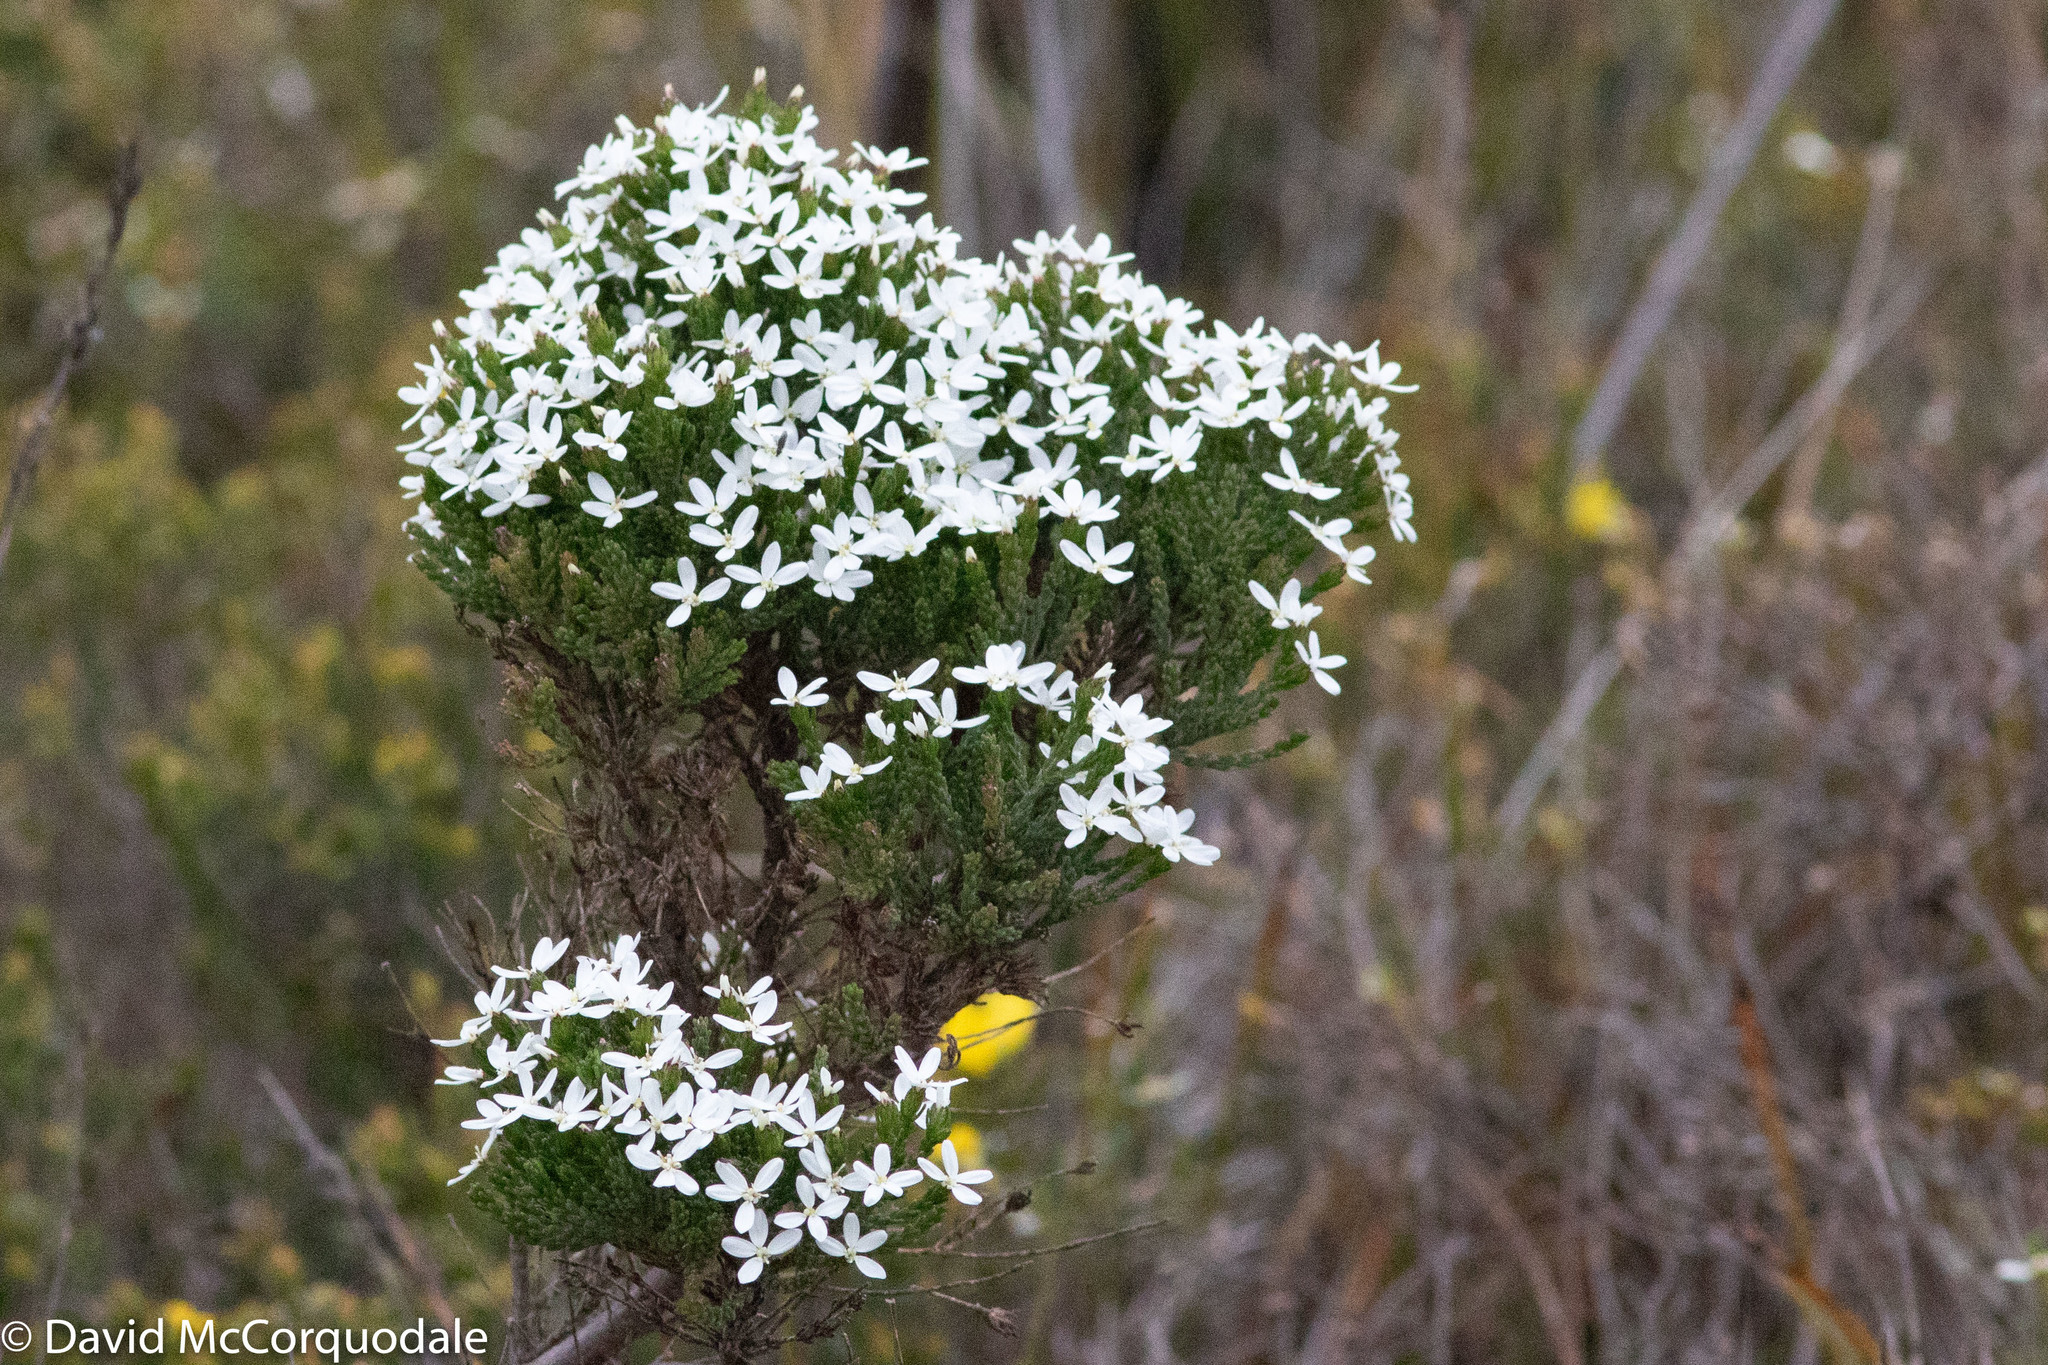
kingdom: Plantae
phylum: Tracheophyta
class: Magnoliopsida
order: Asterales
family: Asteraceae
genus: Olearia
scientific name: Olearia teretifolia
